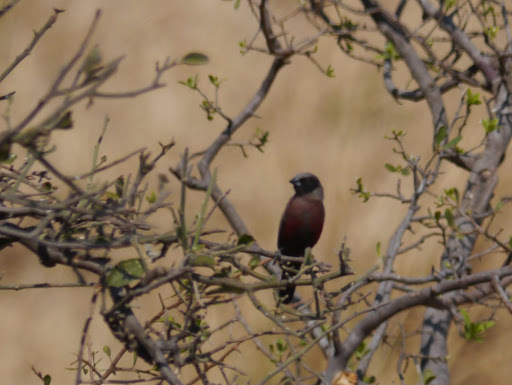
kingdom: Animalia
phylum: Chordata
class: Aves
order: Passeriformes
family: Estrildidae
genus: Estrilda
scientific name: Estrilda erythronotos
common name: Black-faced waxbill
